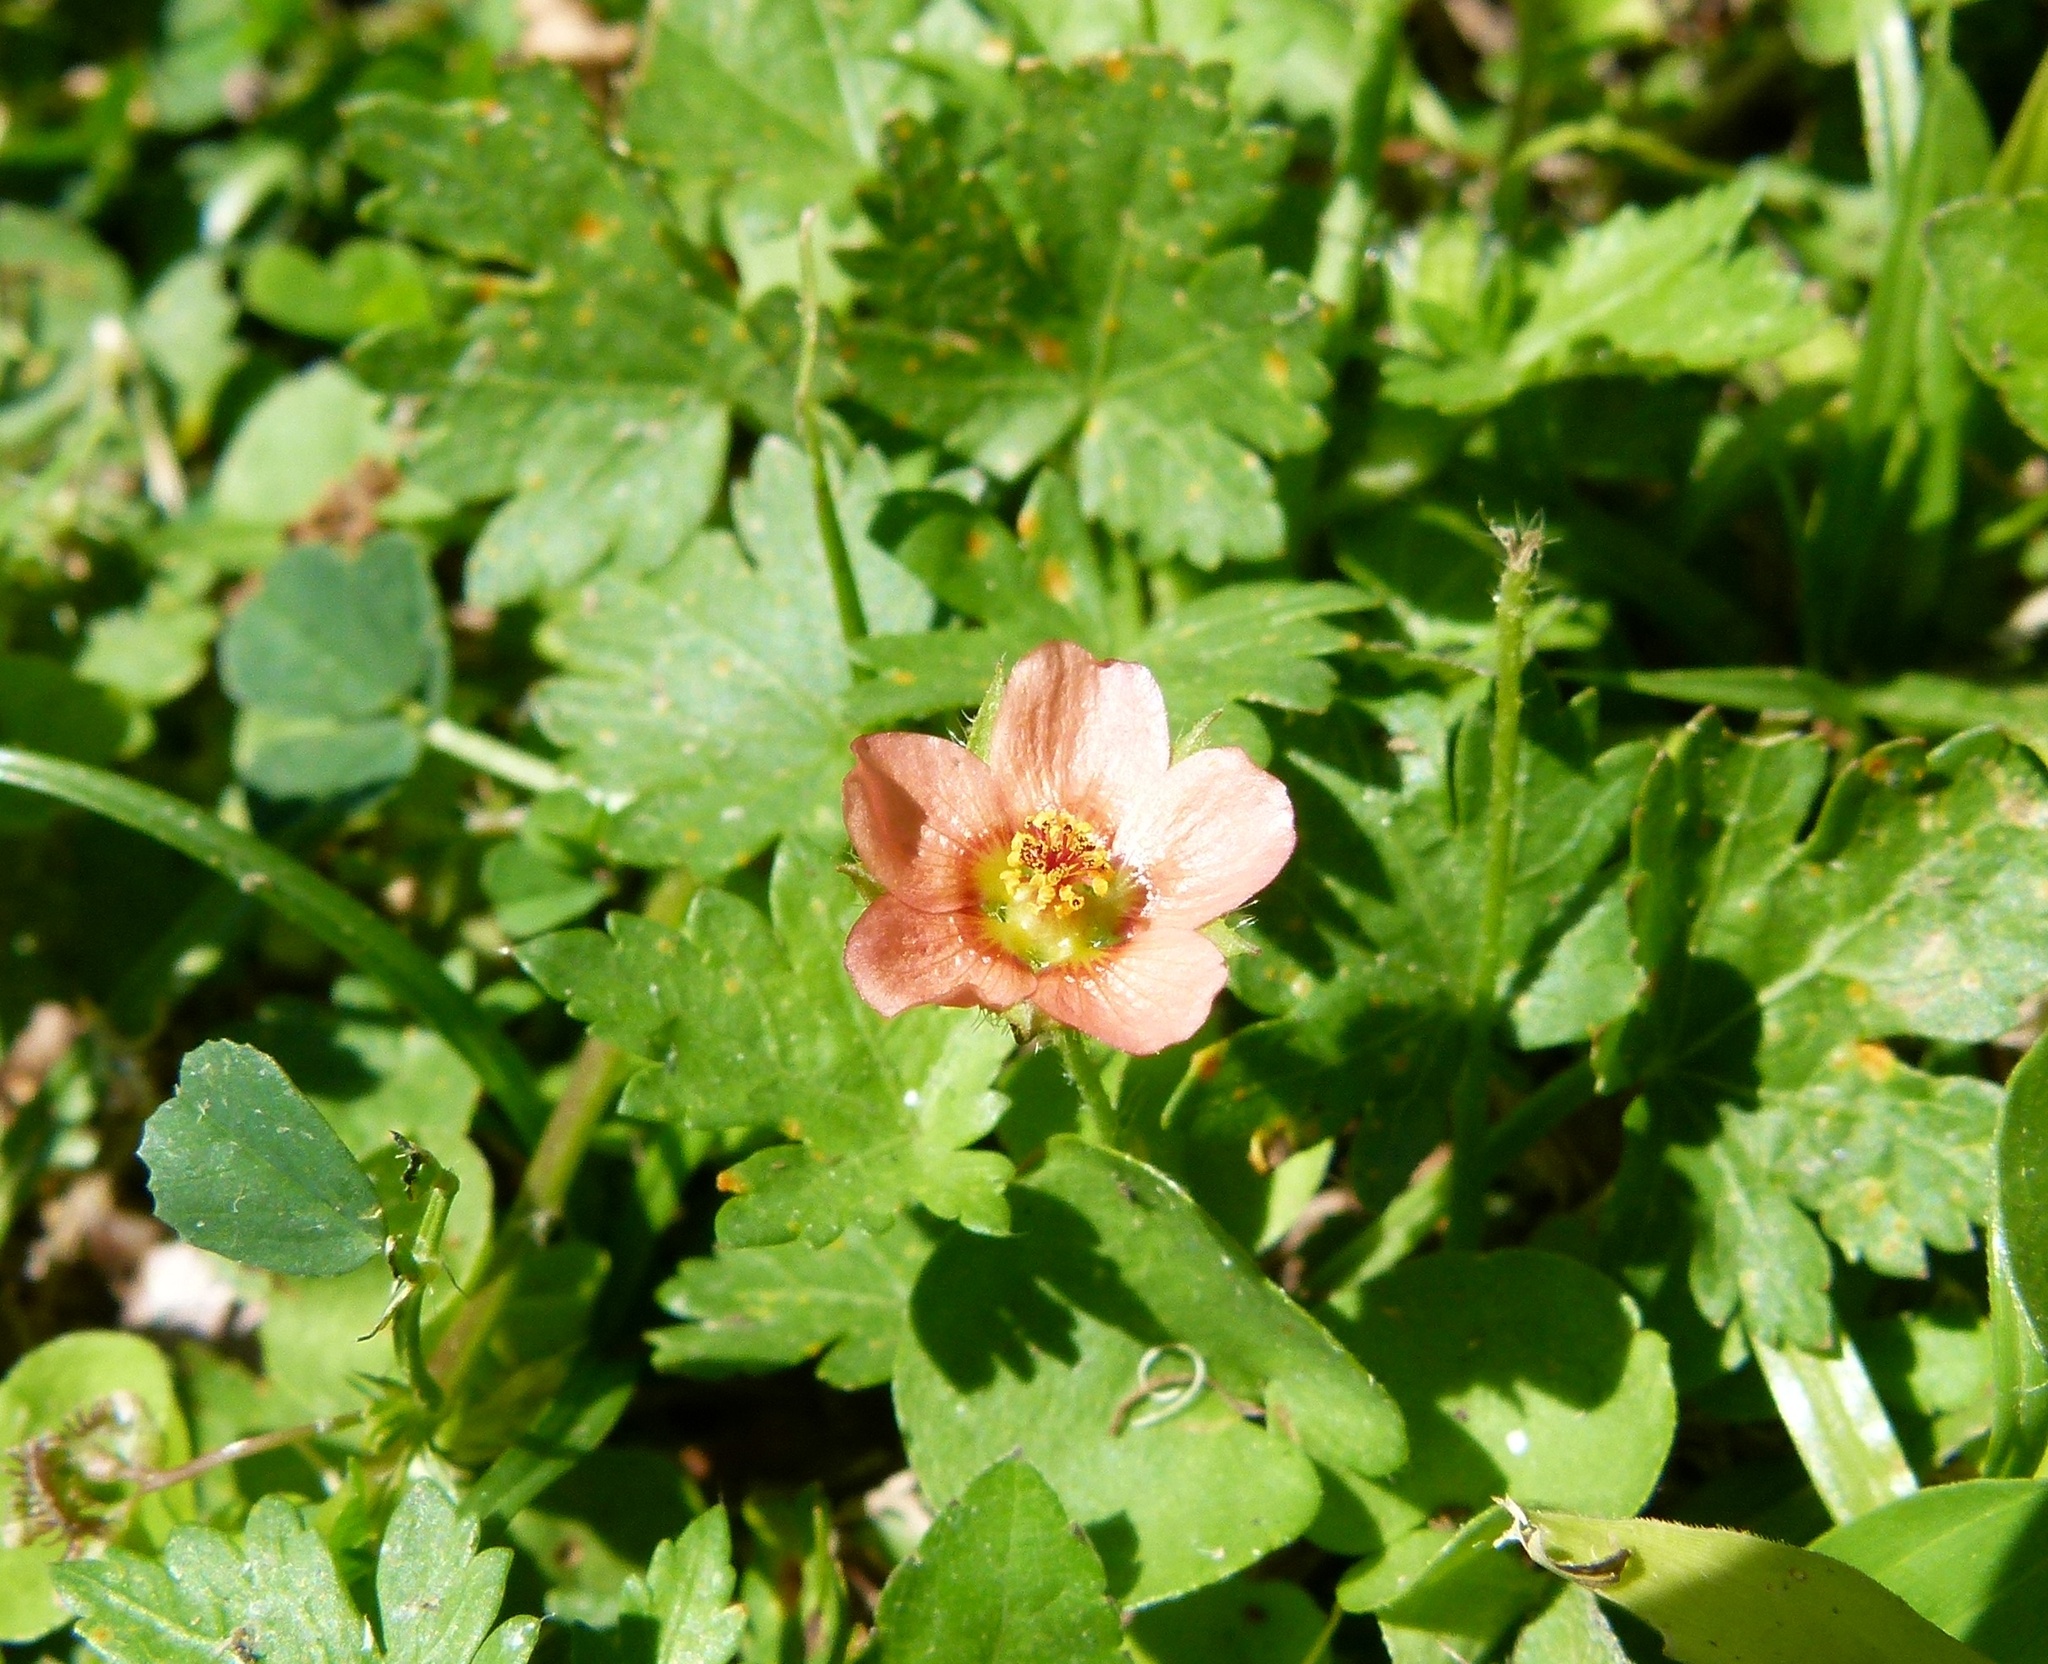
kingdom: Plantae
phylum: Tracheophyta
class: Magnoliopsida
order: Malvales
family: Malvaceae
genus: Modiola
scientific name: Modiola caroliniana
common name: Carolina bristlemallow
